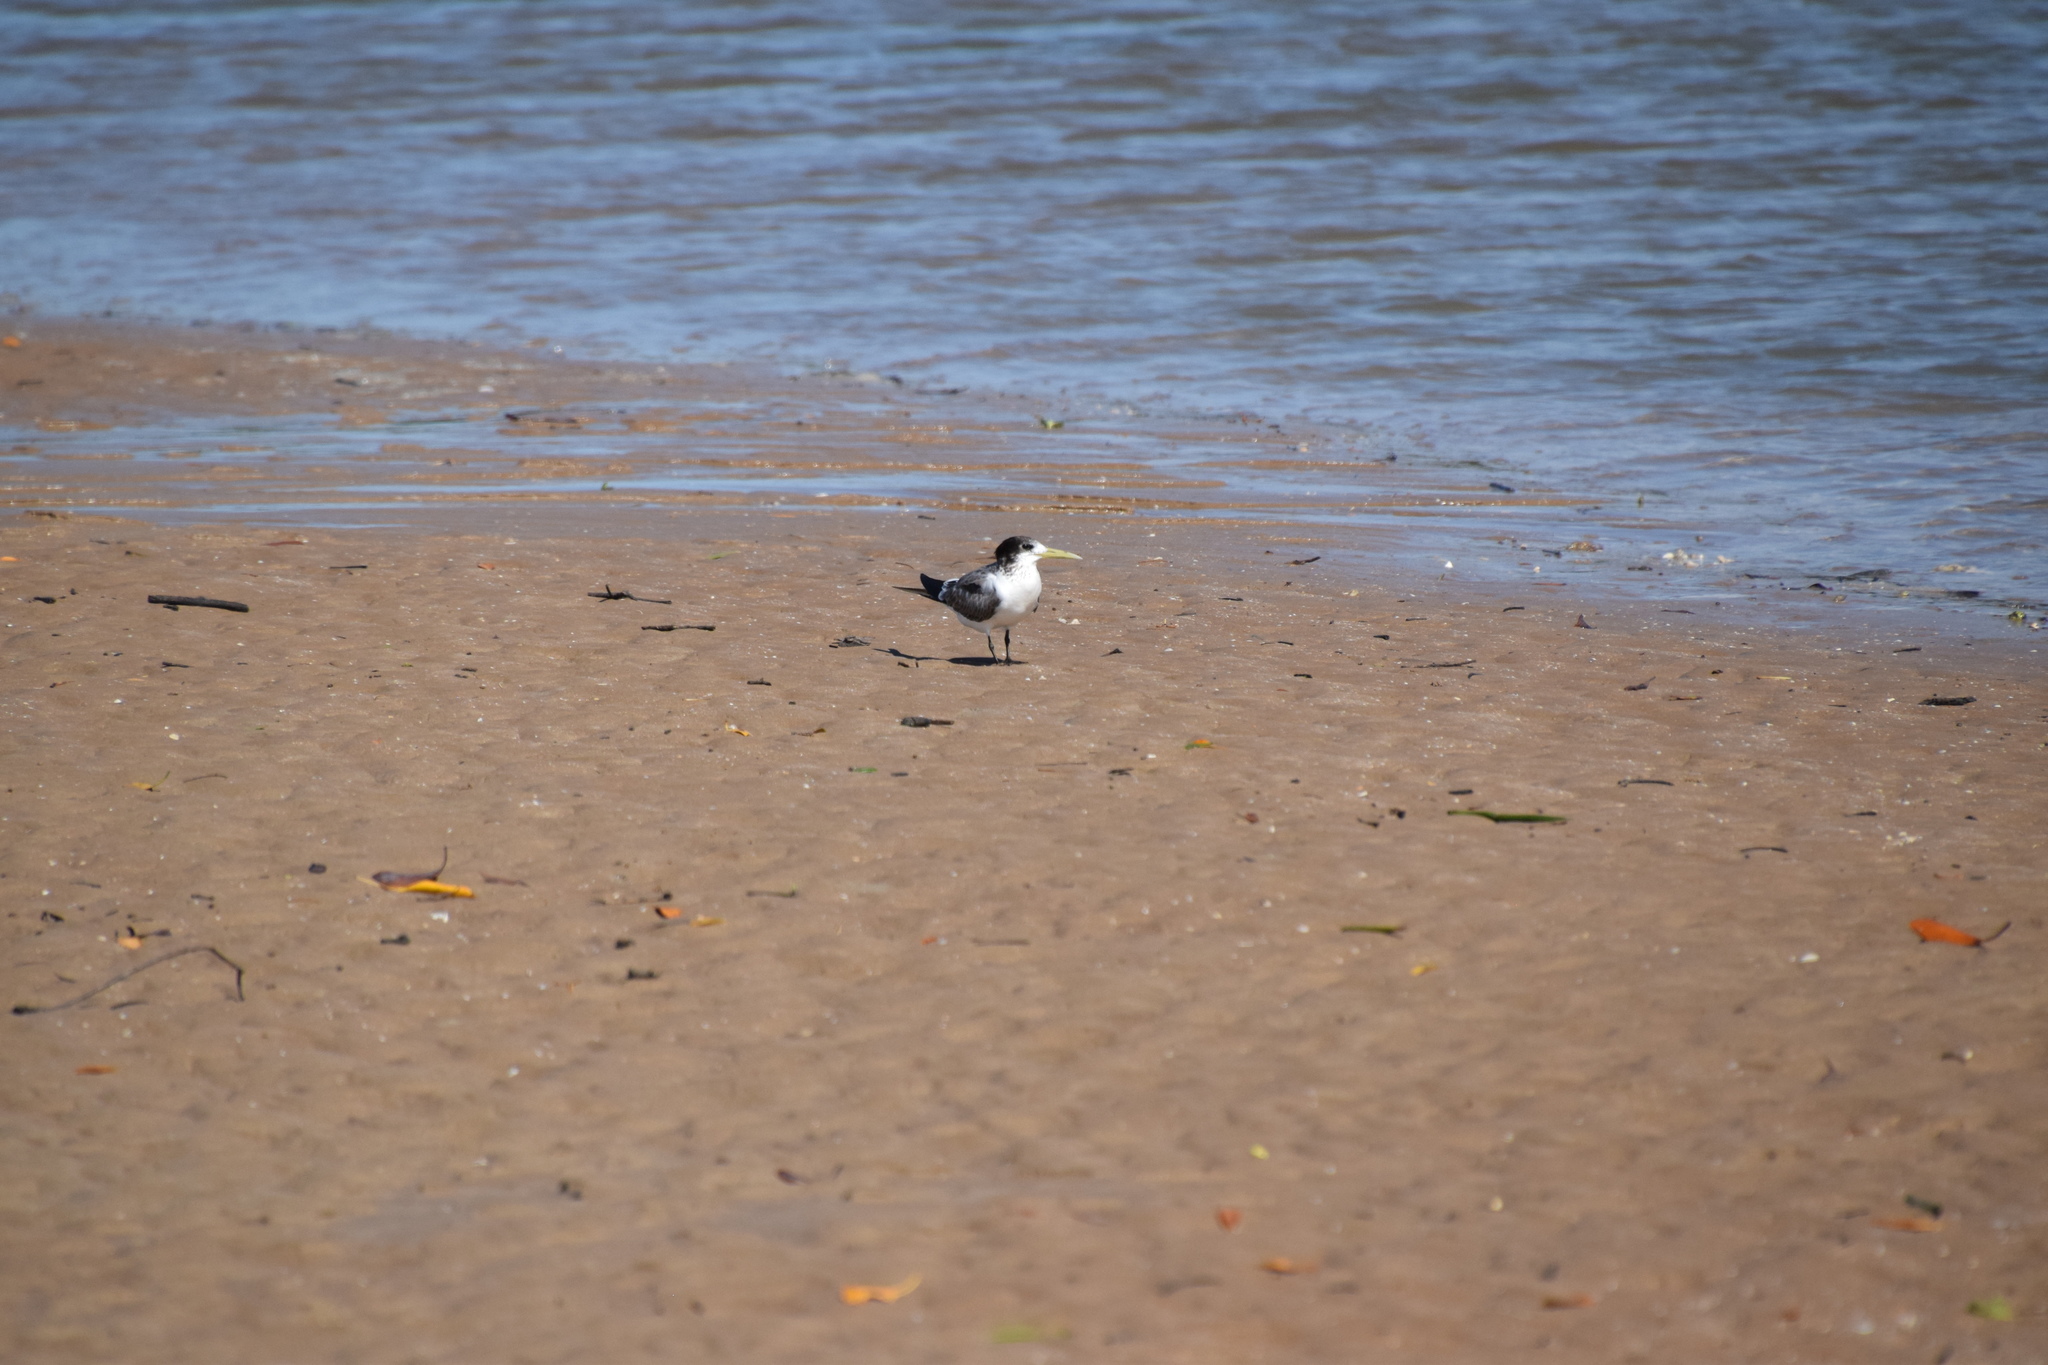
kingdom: Animalia
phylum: Chordata
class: Aves
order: Charadriiformes
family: Laridae
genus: Thalasseus
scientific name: Thalasseus bergii
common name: Greater crested tern
